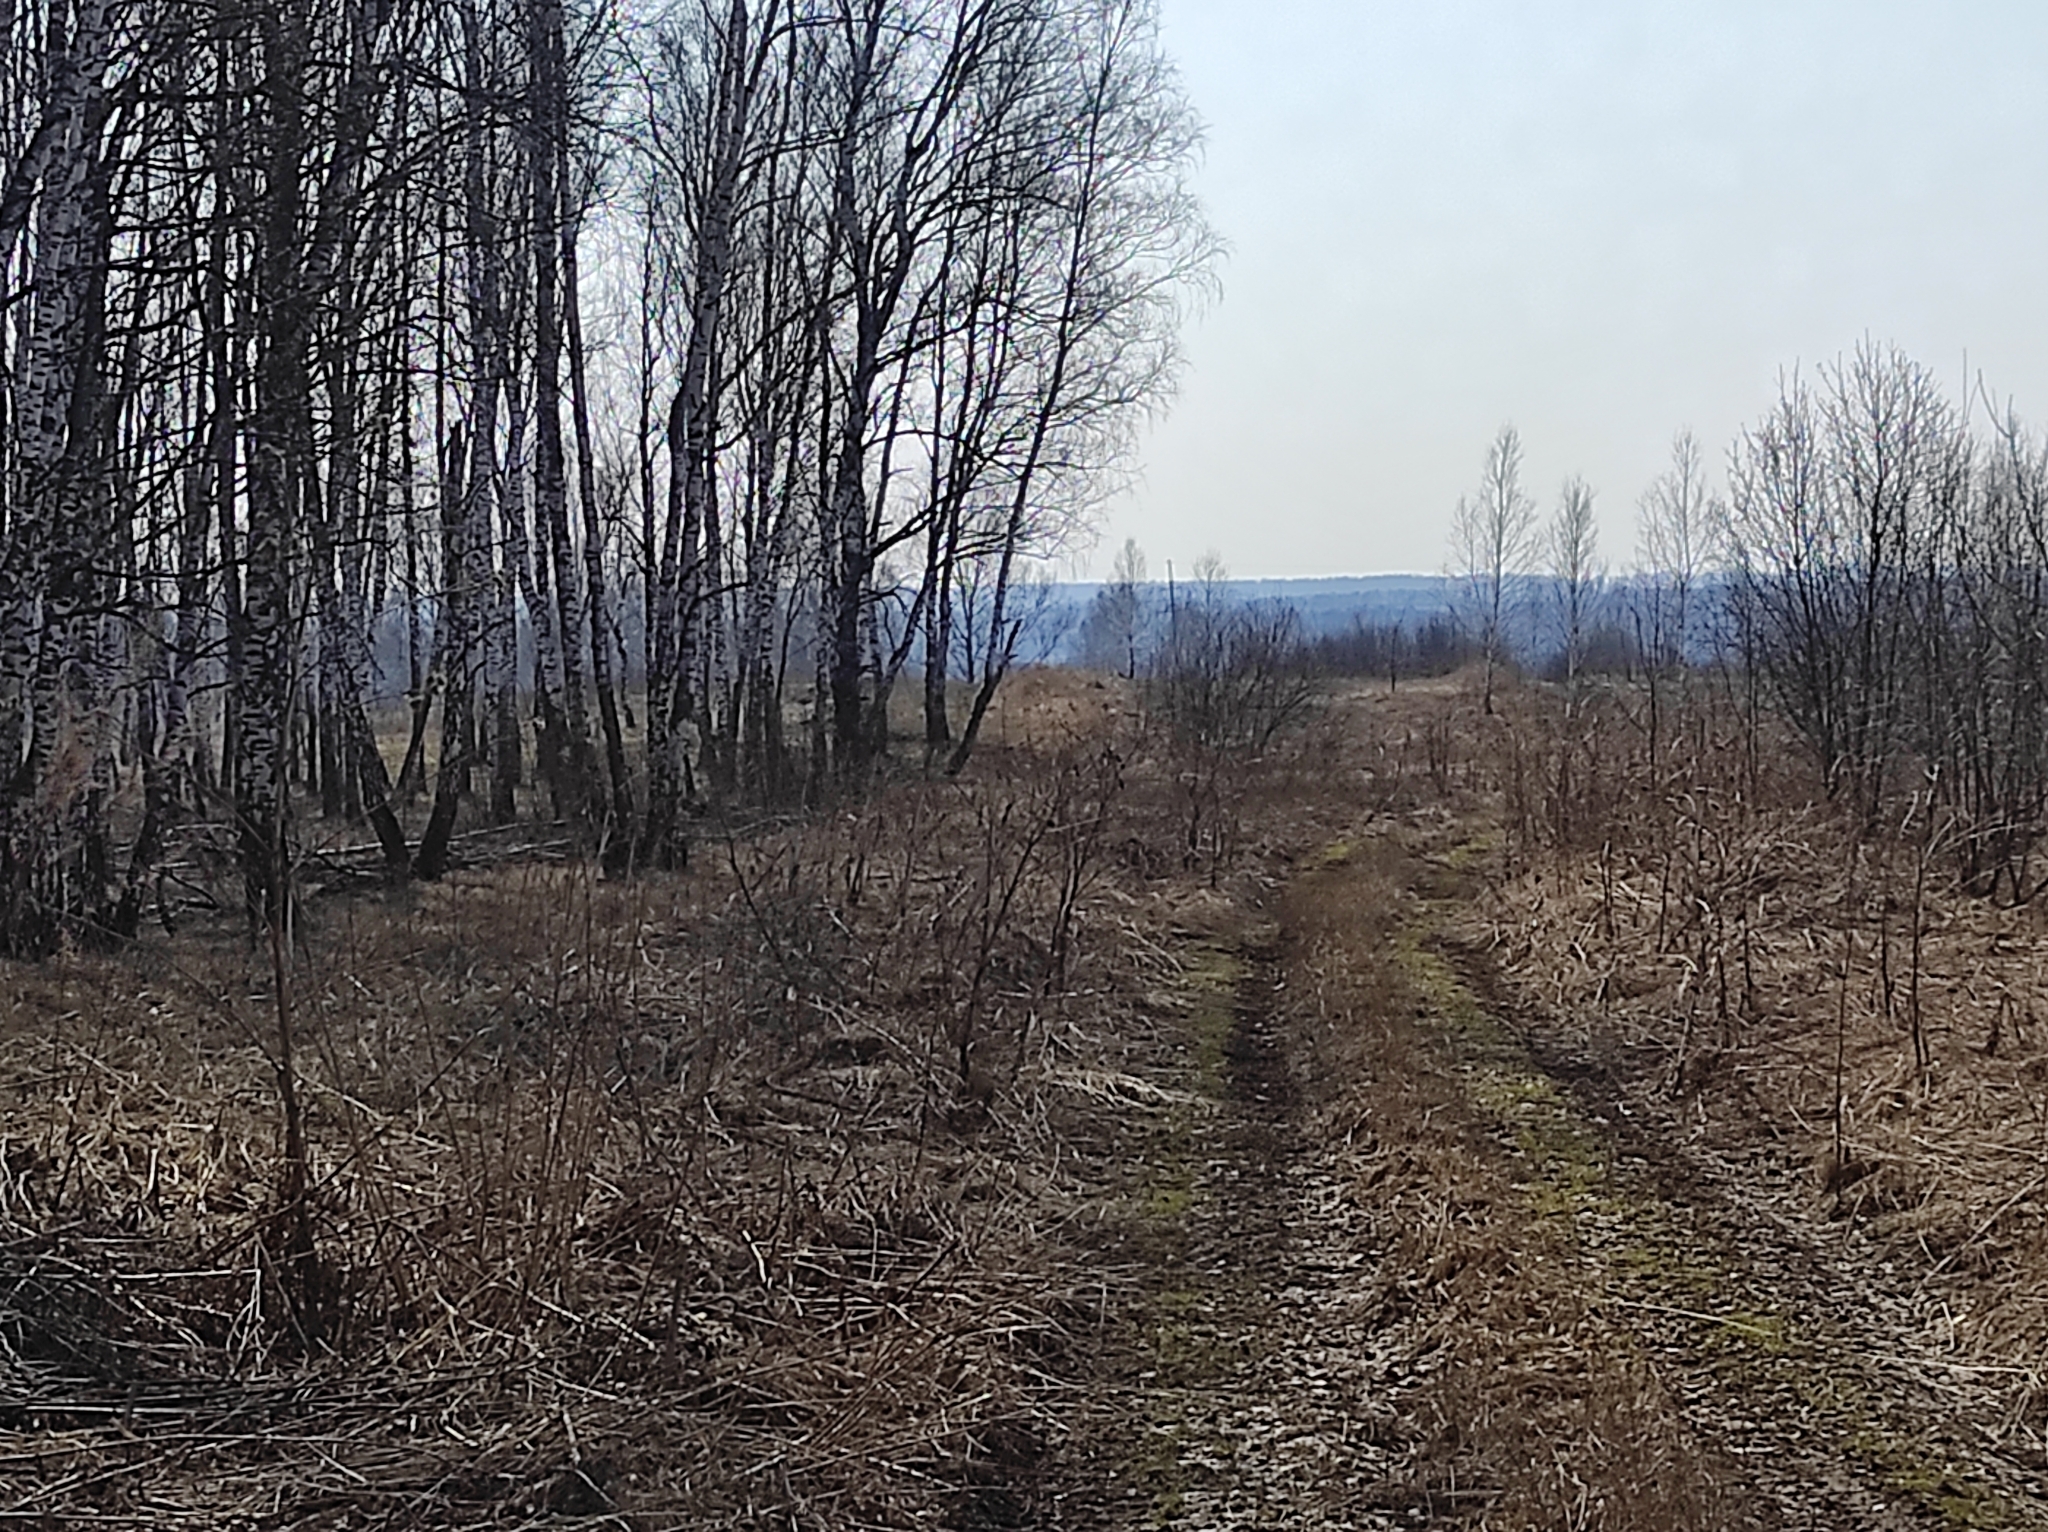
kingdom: Plantae
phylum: Tracheophyta
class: Magnoliopsida
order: Fagales
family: Betulaceae
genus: Betula
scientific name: Betula pendula
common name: Silver birch
